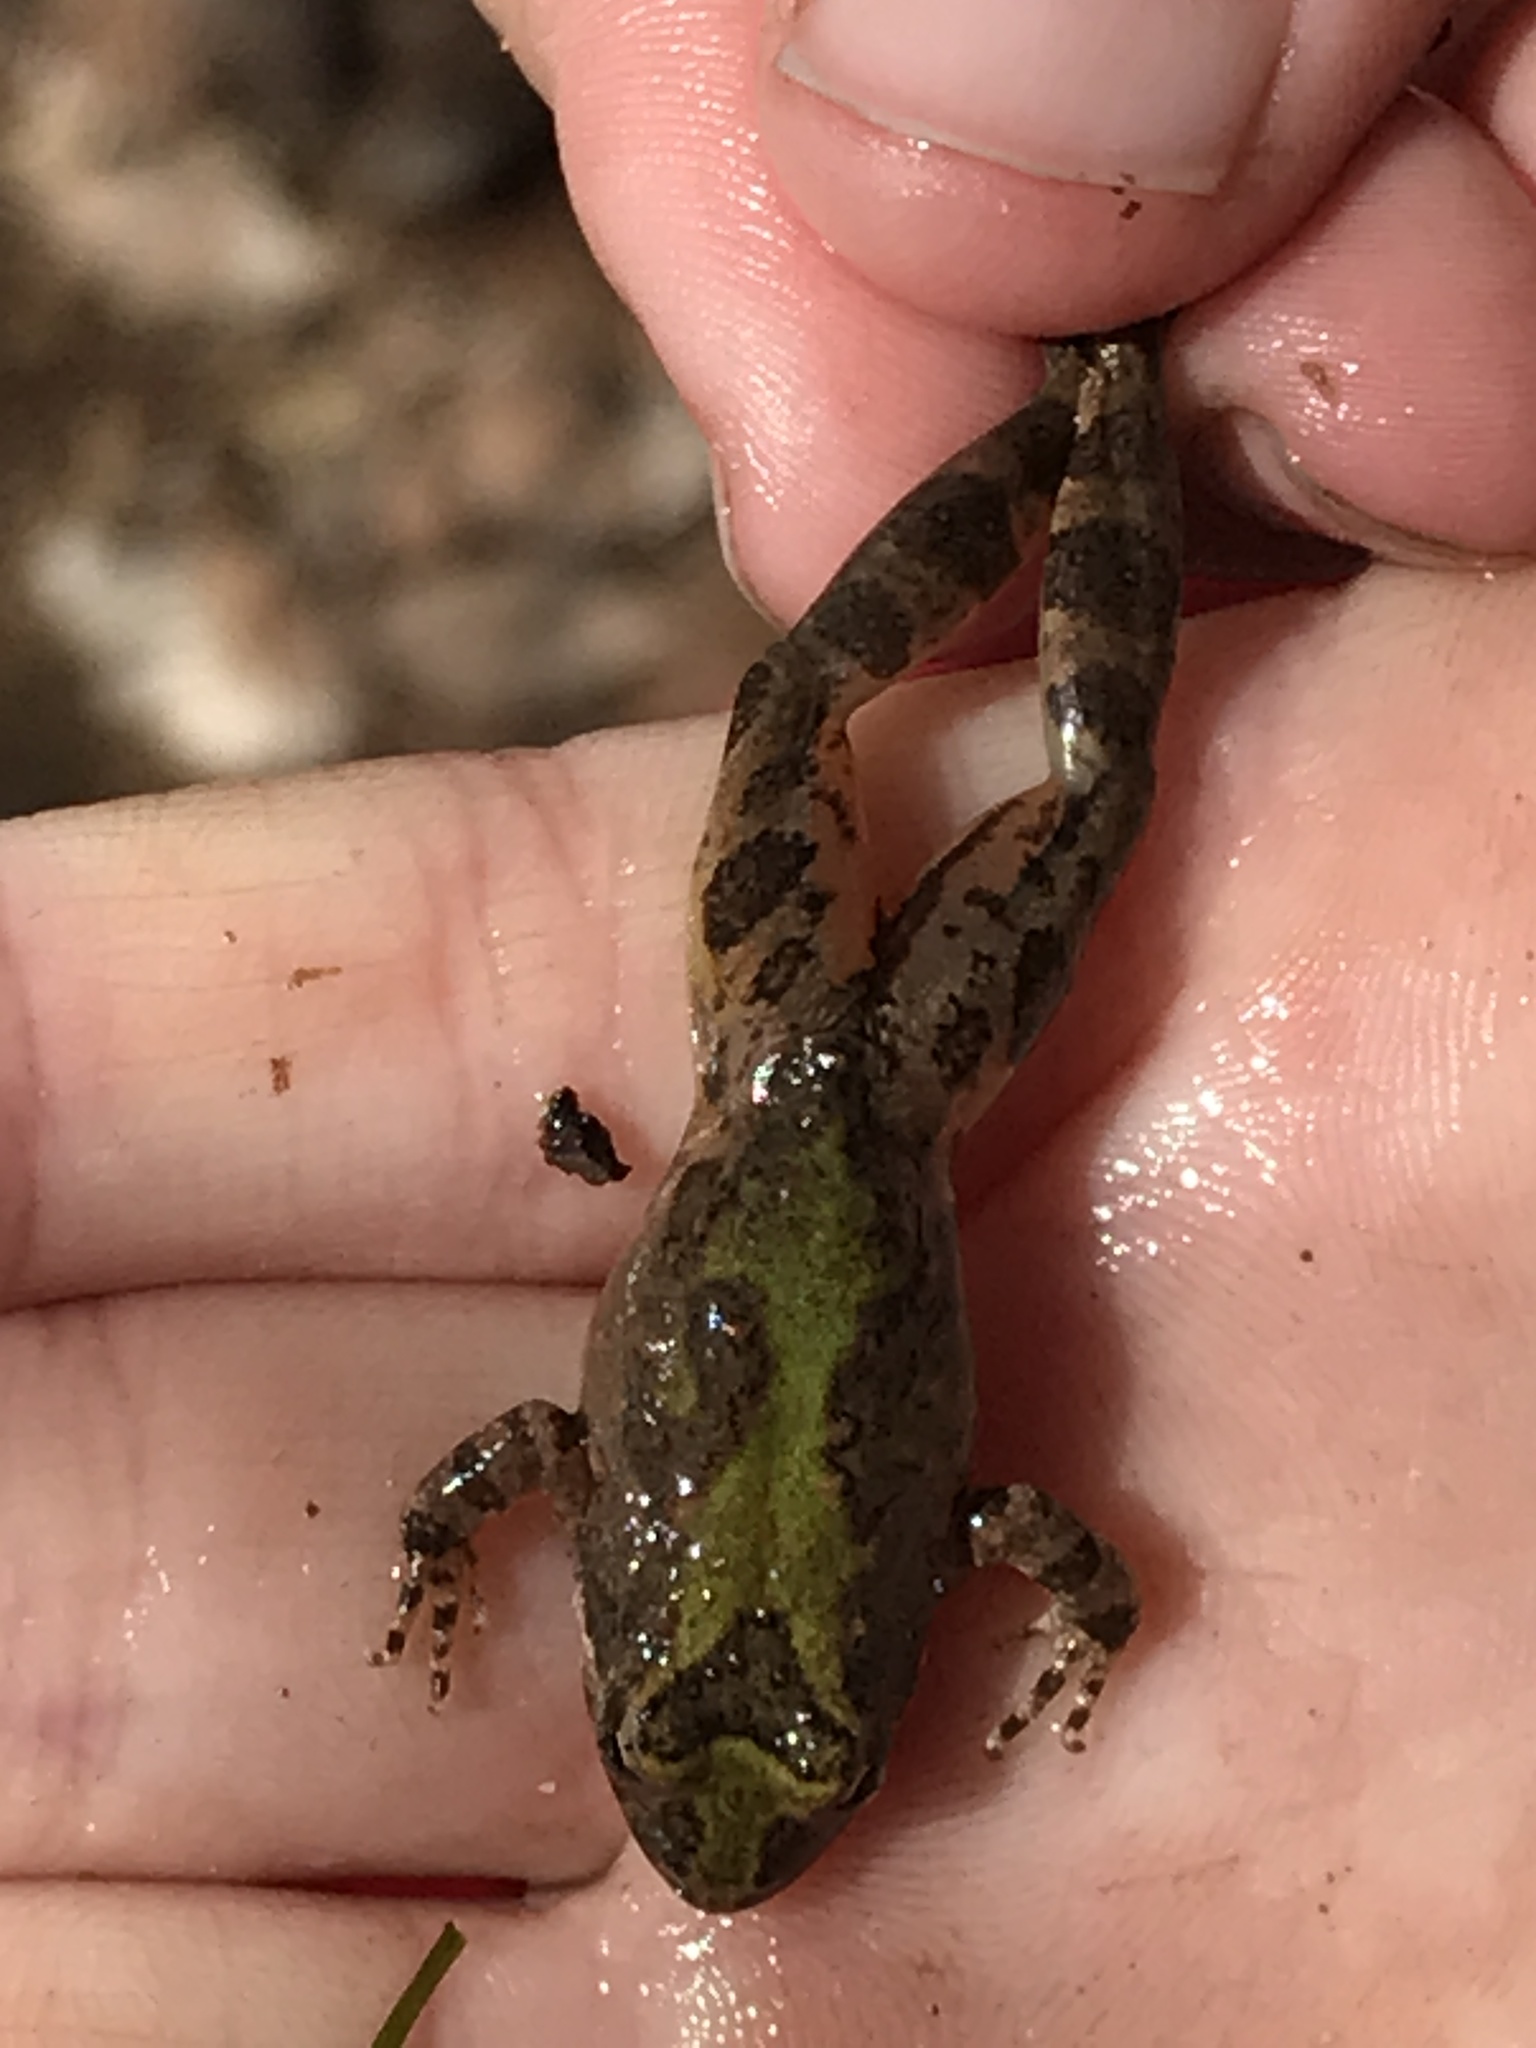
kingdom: Animalia
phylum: Chordata
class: Amphibia
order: Anura
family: Hylidae
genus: Acris
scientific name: Acris blanchardi
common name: Blanchard's cricket frog
